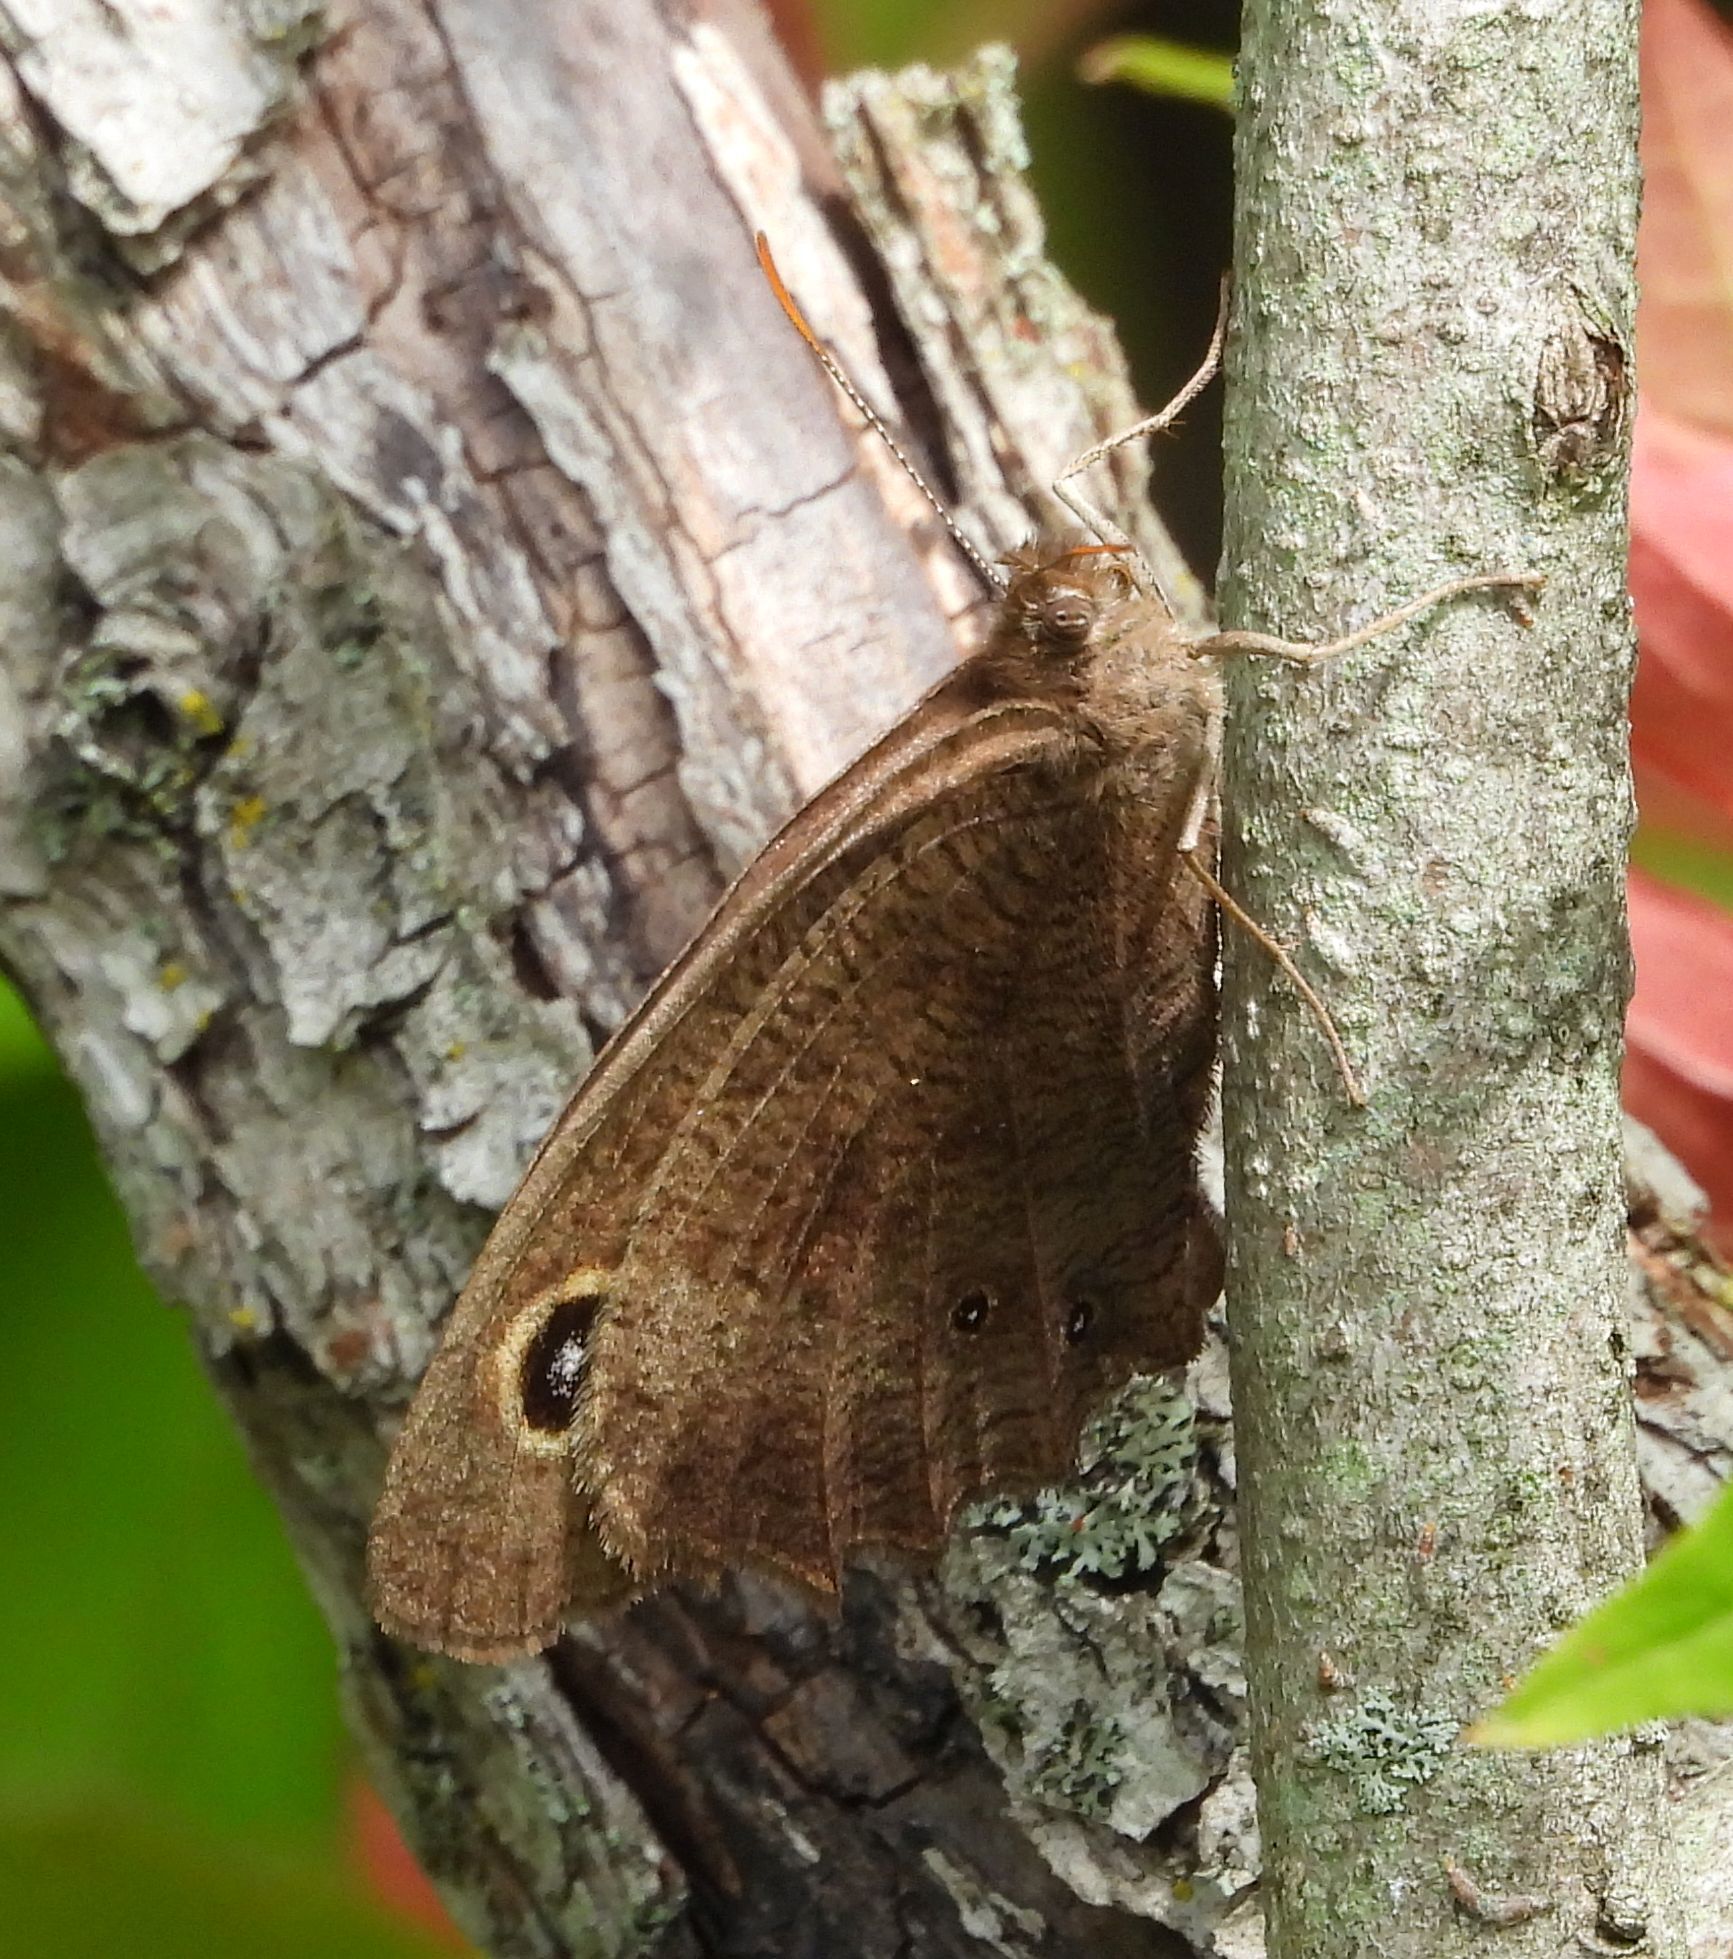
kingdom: Animalia
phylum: Arthropoda
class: Insecta
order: Lepidoptera
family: Nymphalidae
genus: Cercyonis
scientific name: Cercyonis pegala
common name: Common wood-nymph
